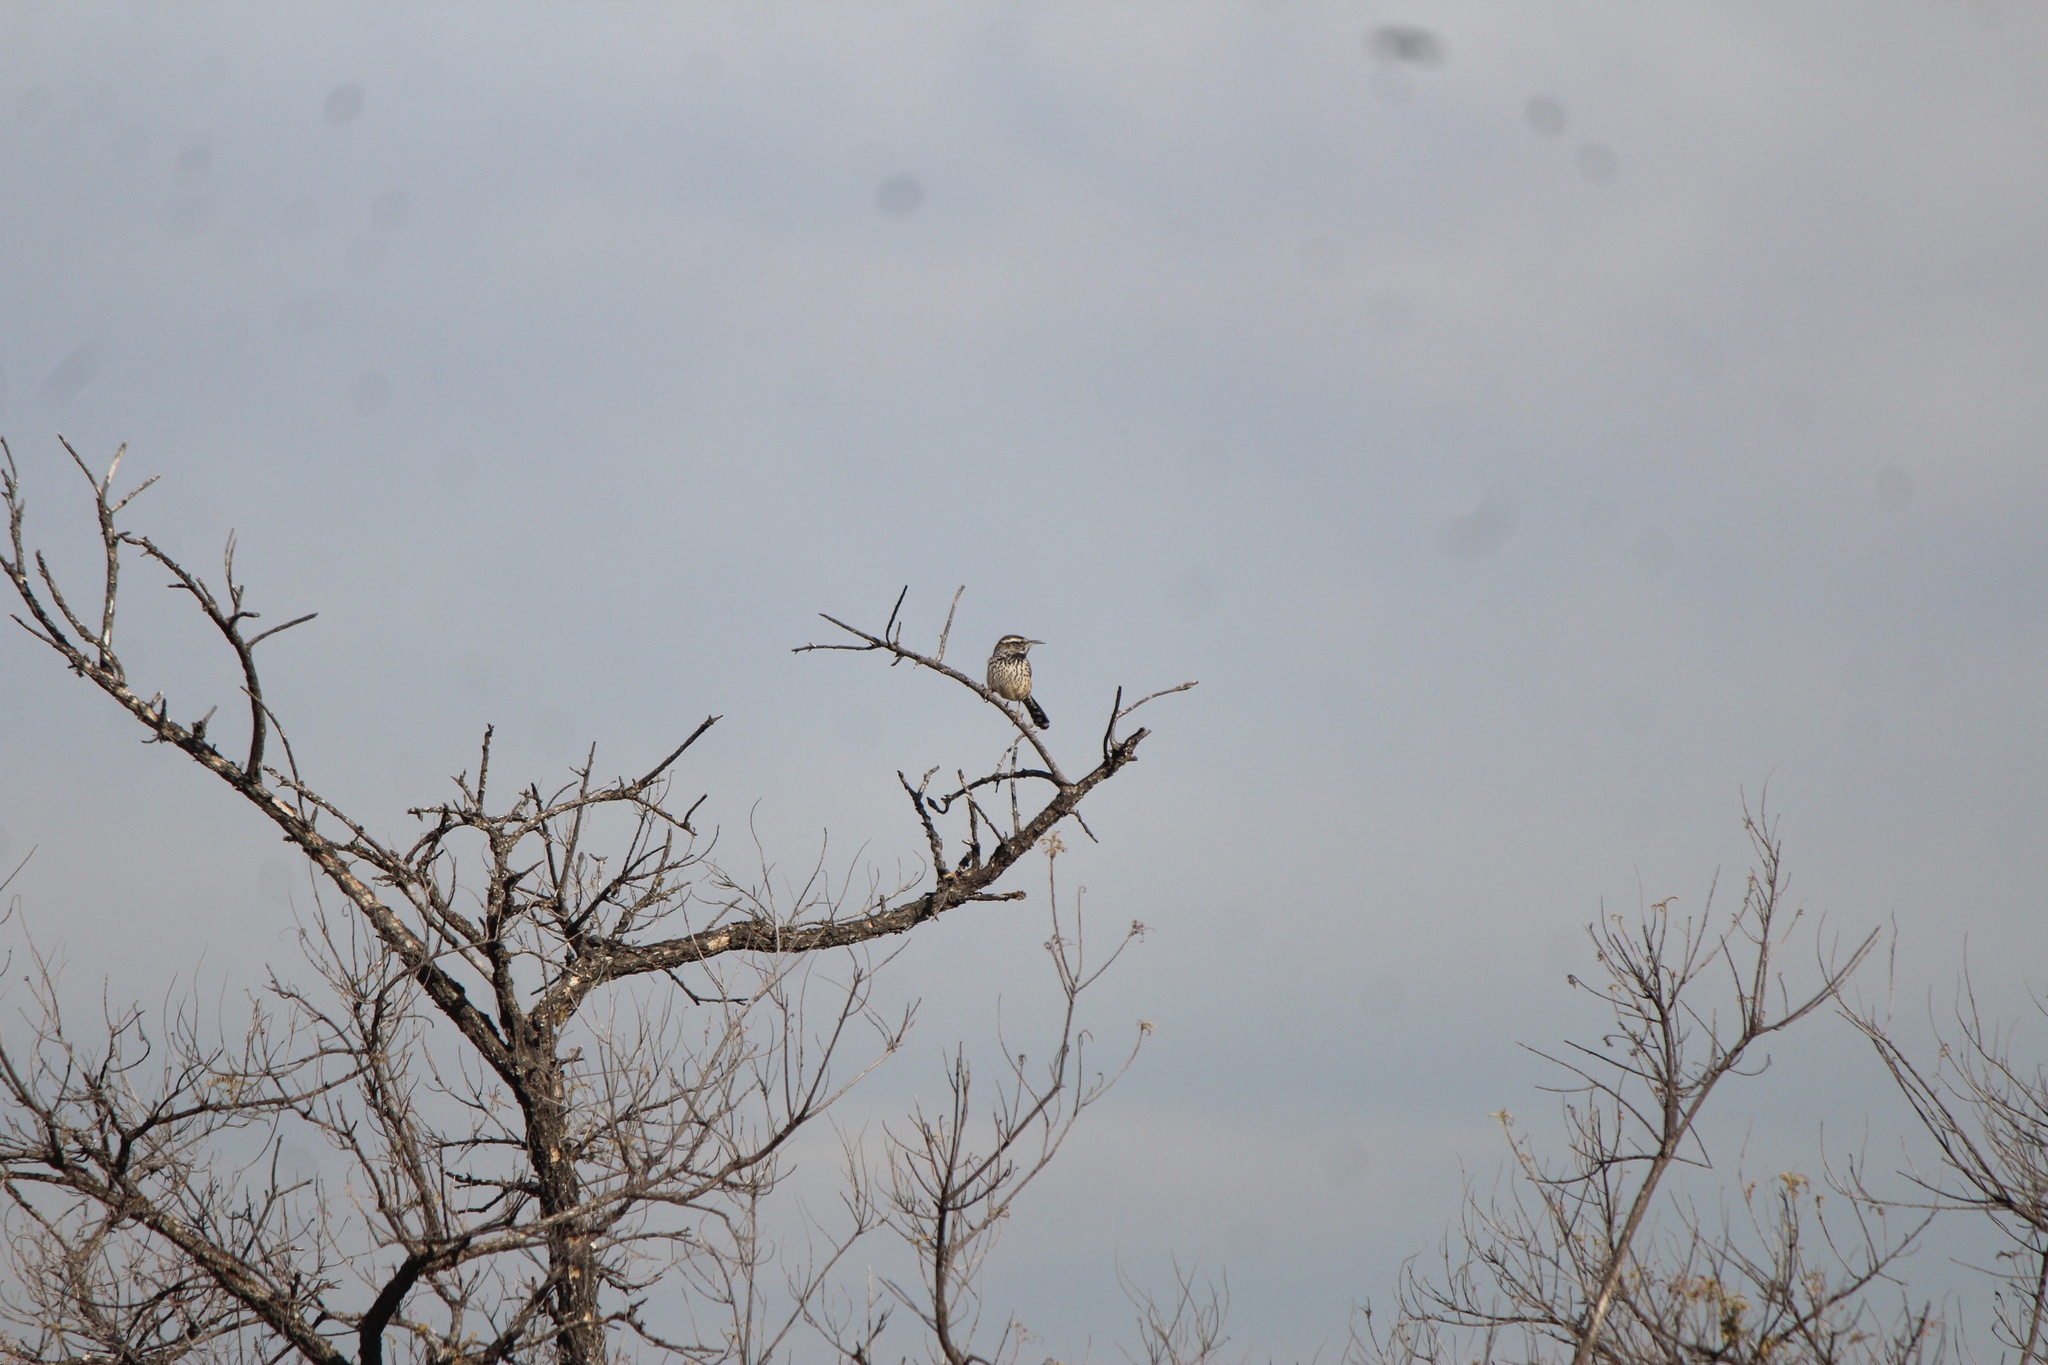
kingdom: Animalia
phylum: Chordata
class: Aves
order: Passeriformes
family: Troglodytidae
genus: Campylorhynchus
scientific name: Campylorhynchus brunneicapillus
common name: Cactus wren
